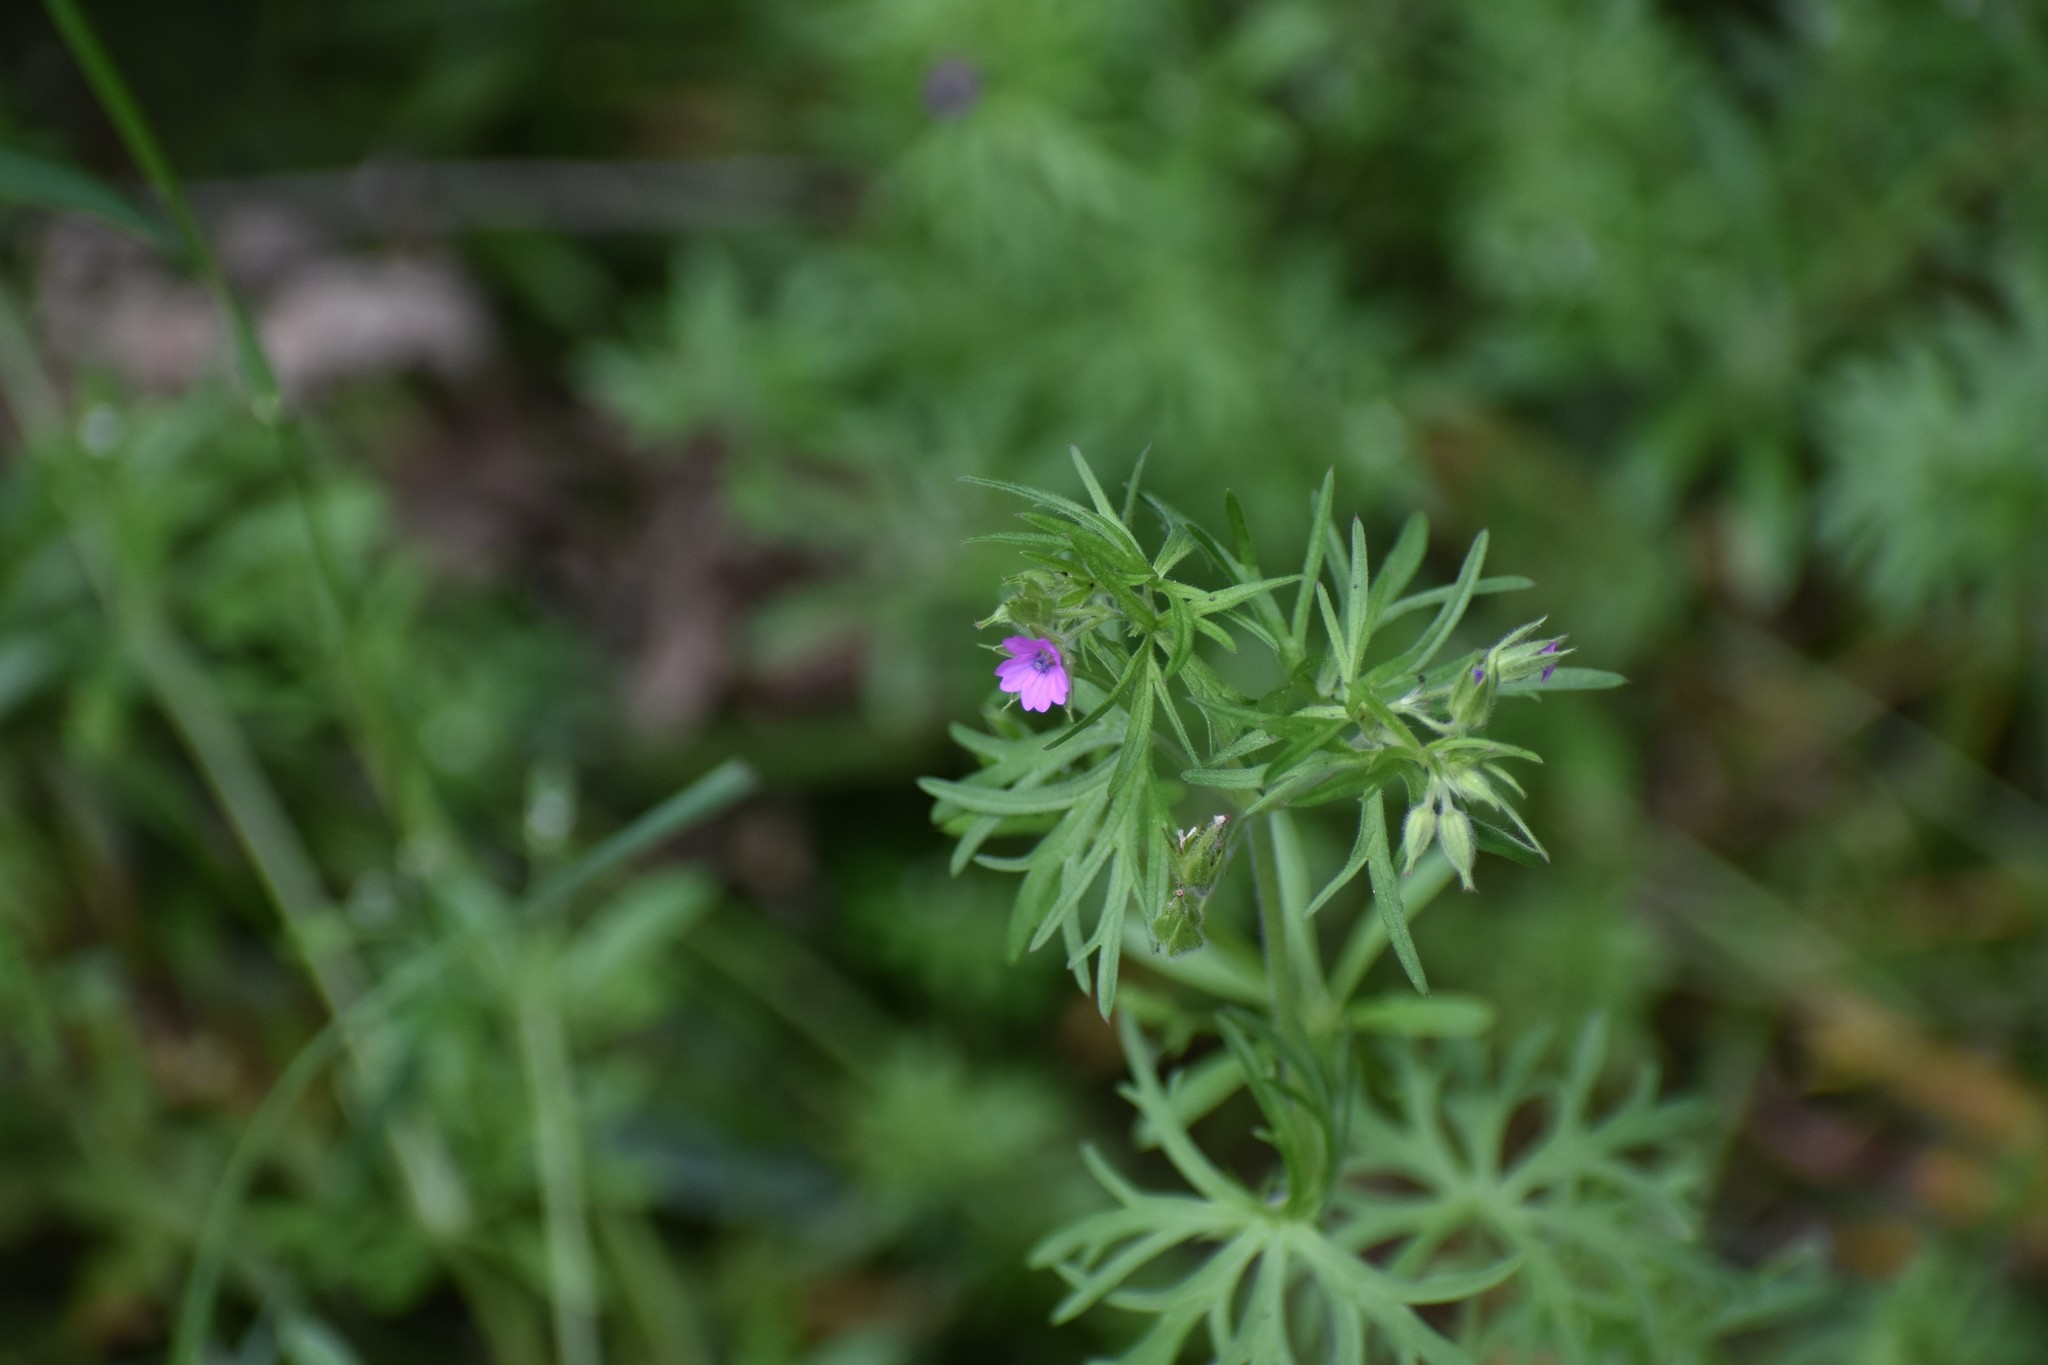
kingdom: Plantae
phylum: Tracheophyta
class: Magnoliopsida
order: Geraniales
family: Geraniaceae
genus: Geranium
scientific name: Geranium dissectum
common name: Cut-leaved crane's-bill
